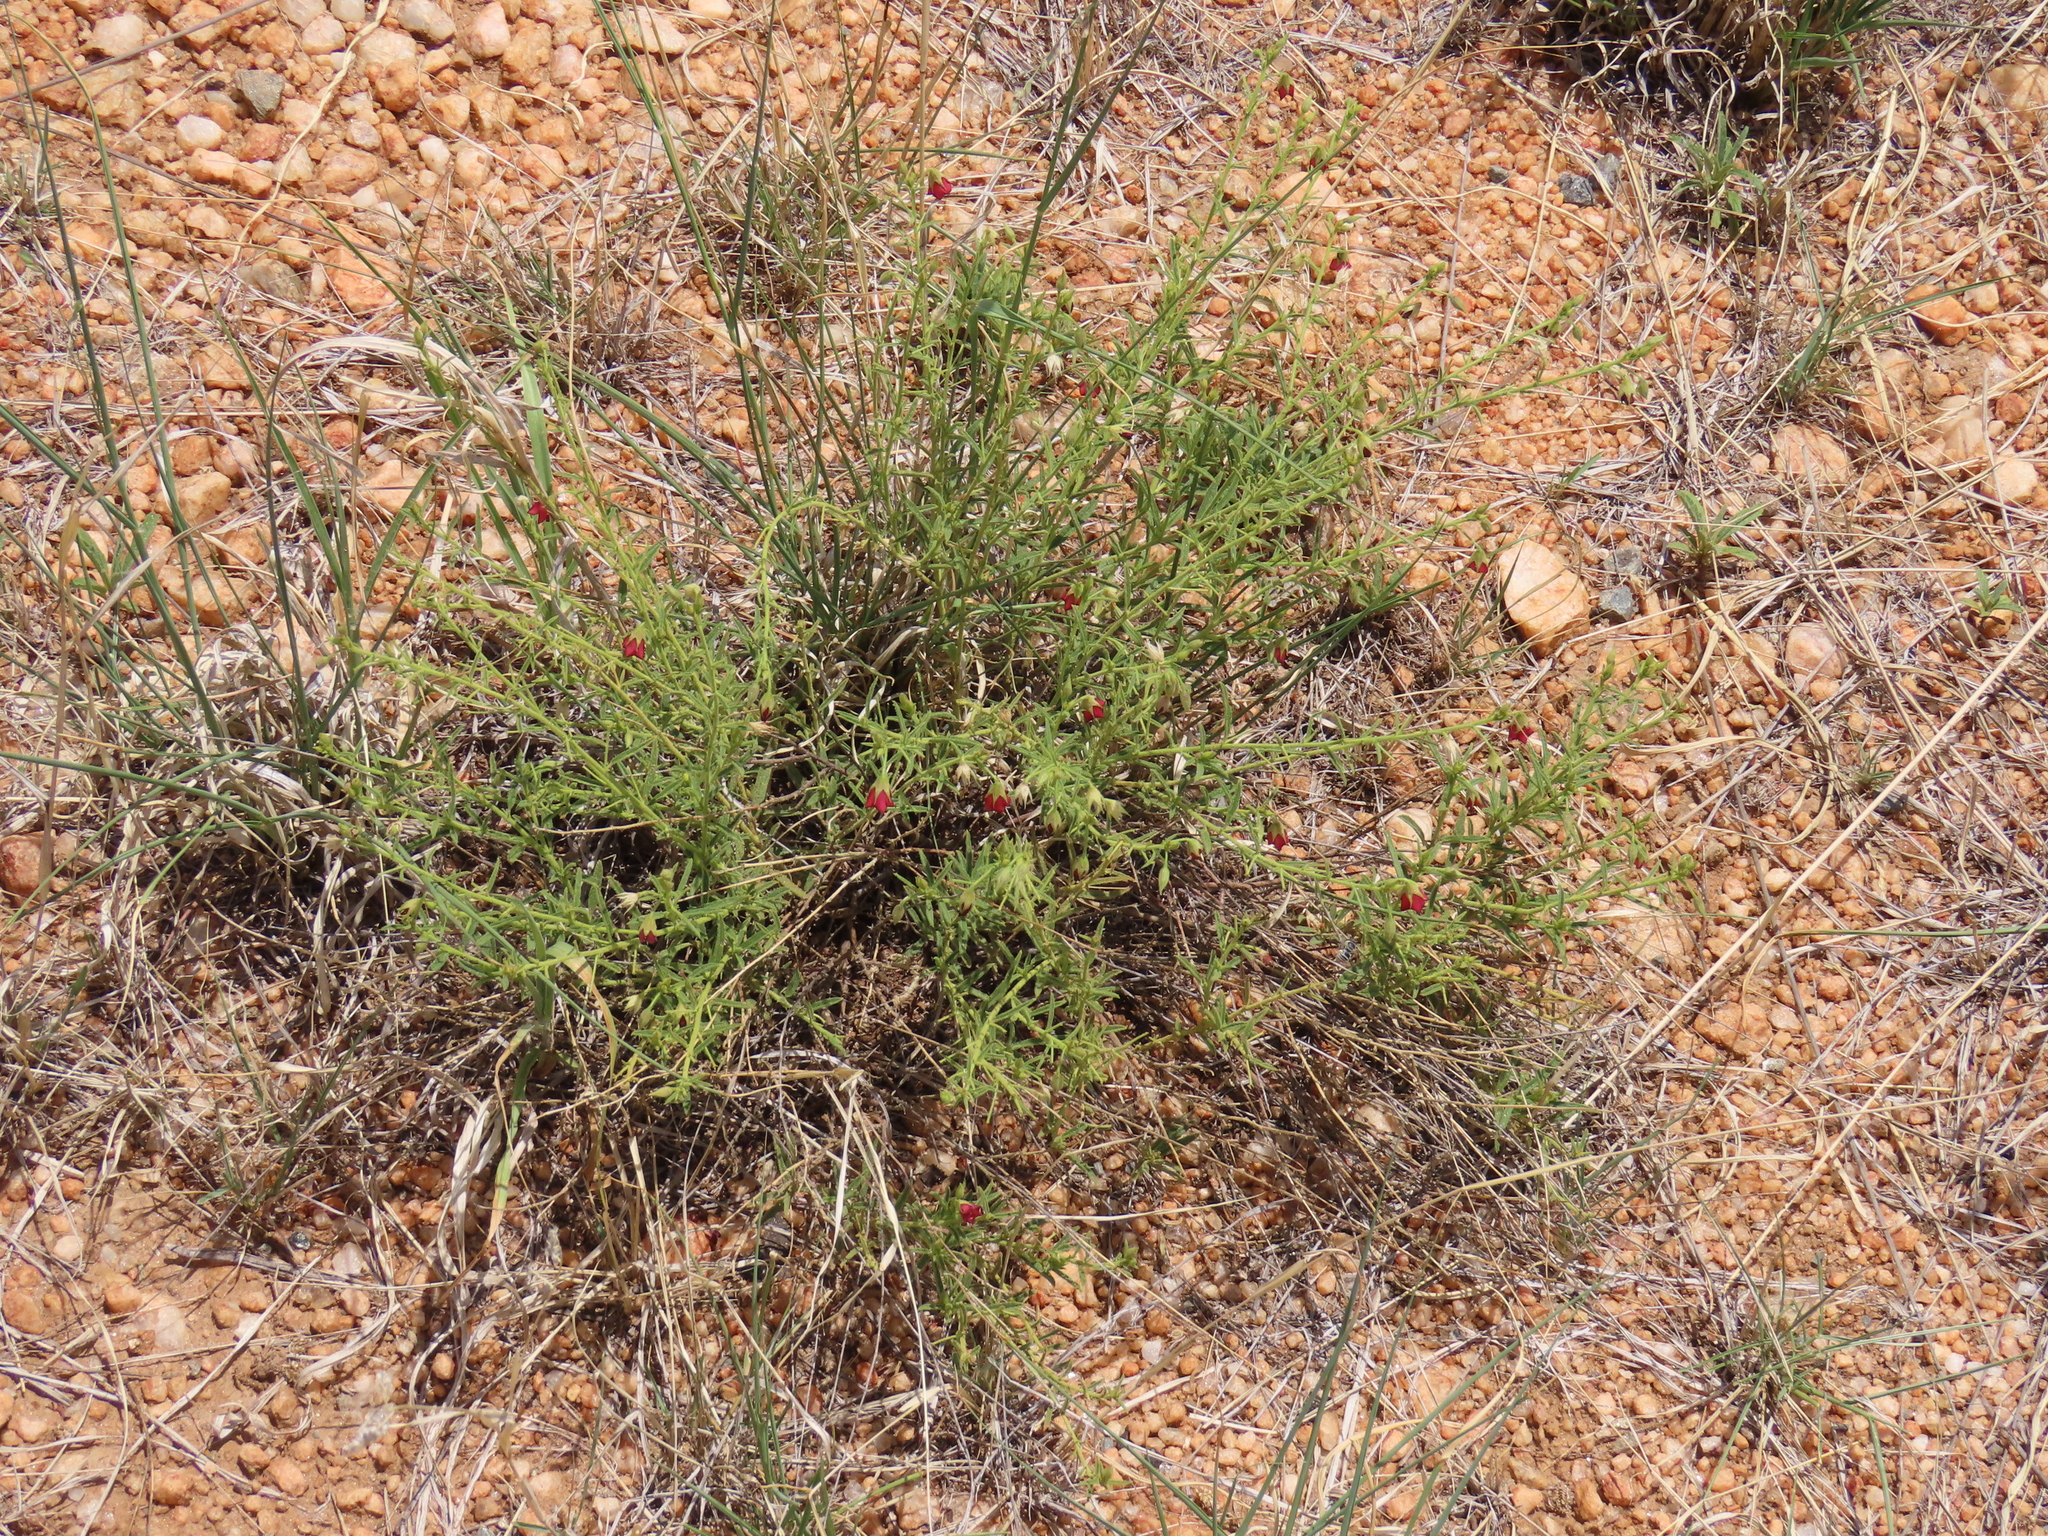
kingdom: Plantae
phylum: Tracheophyta
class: Magnoliopsida
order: Malvales
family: Malvaceae
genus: Hermannia
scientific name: Hermannia modesta
